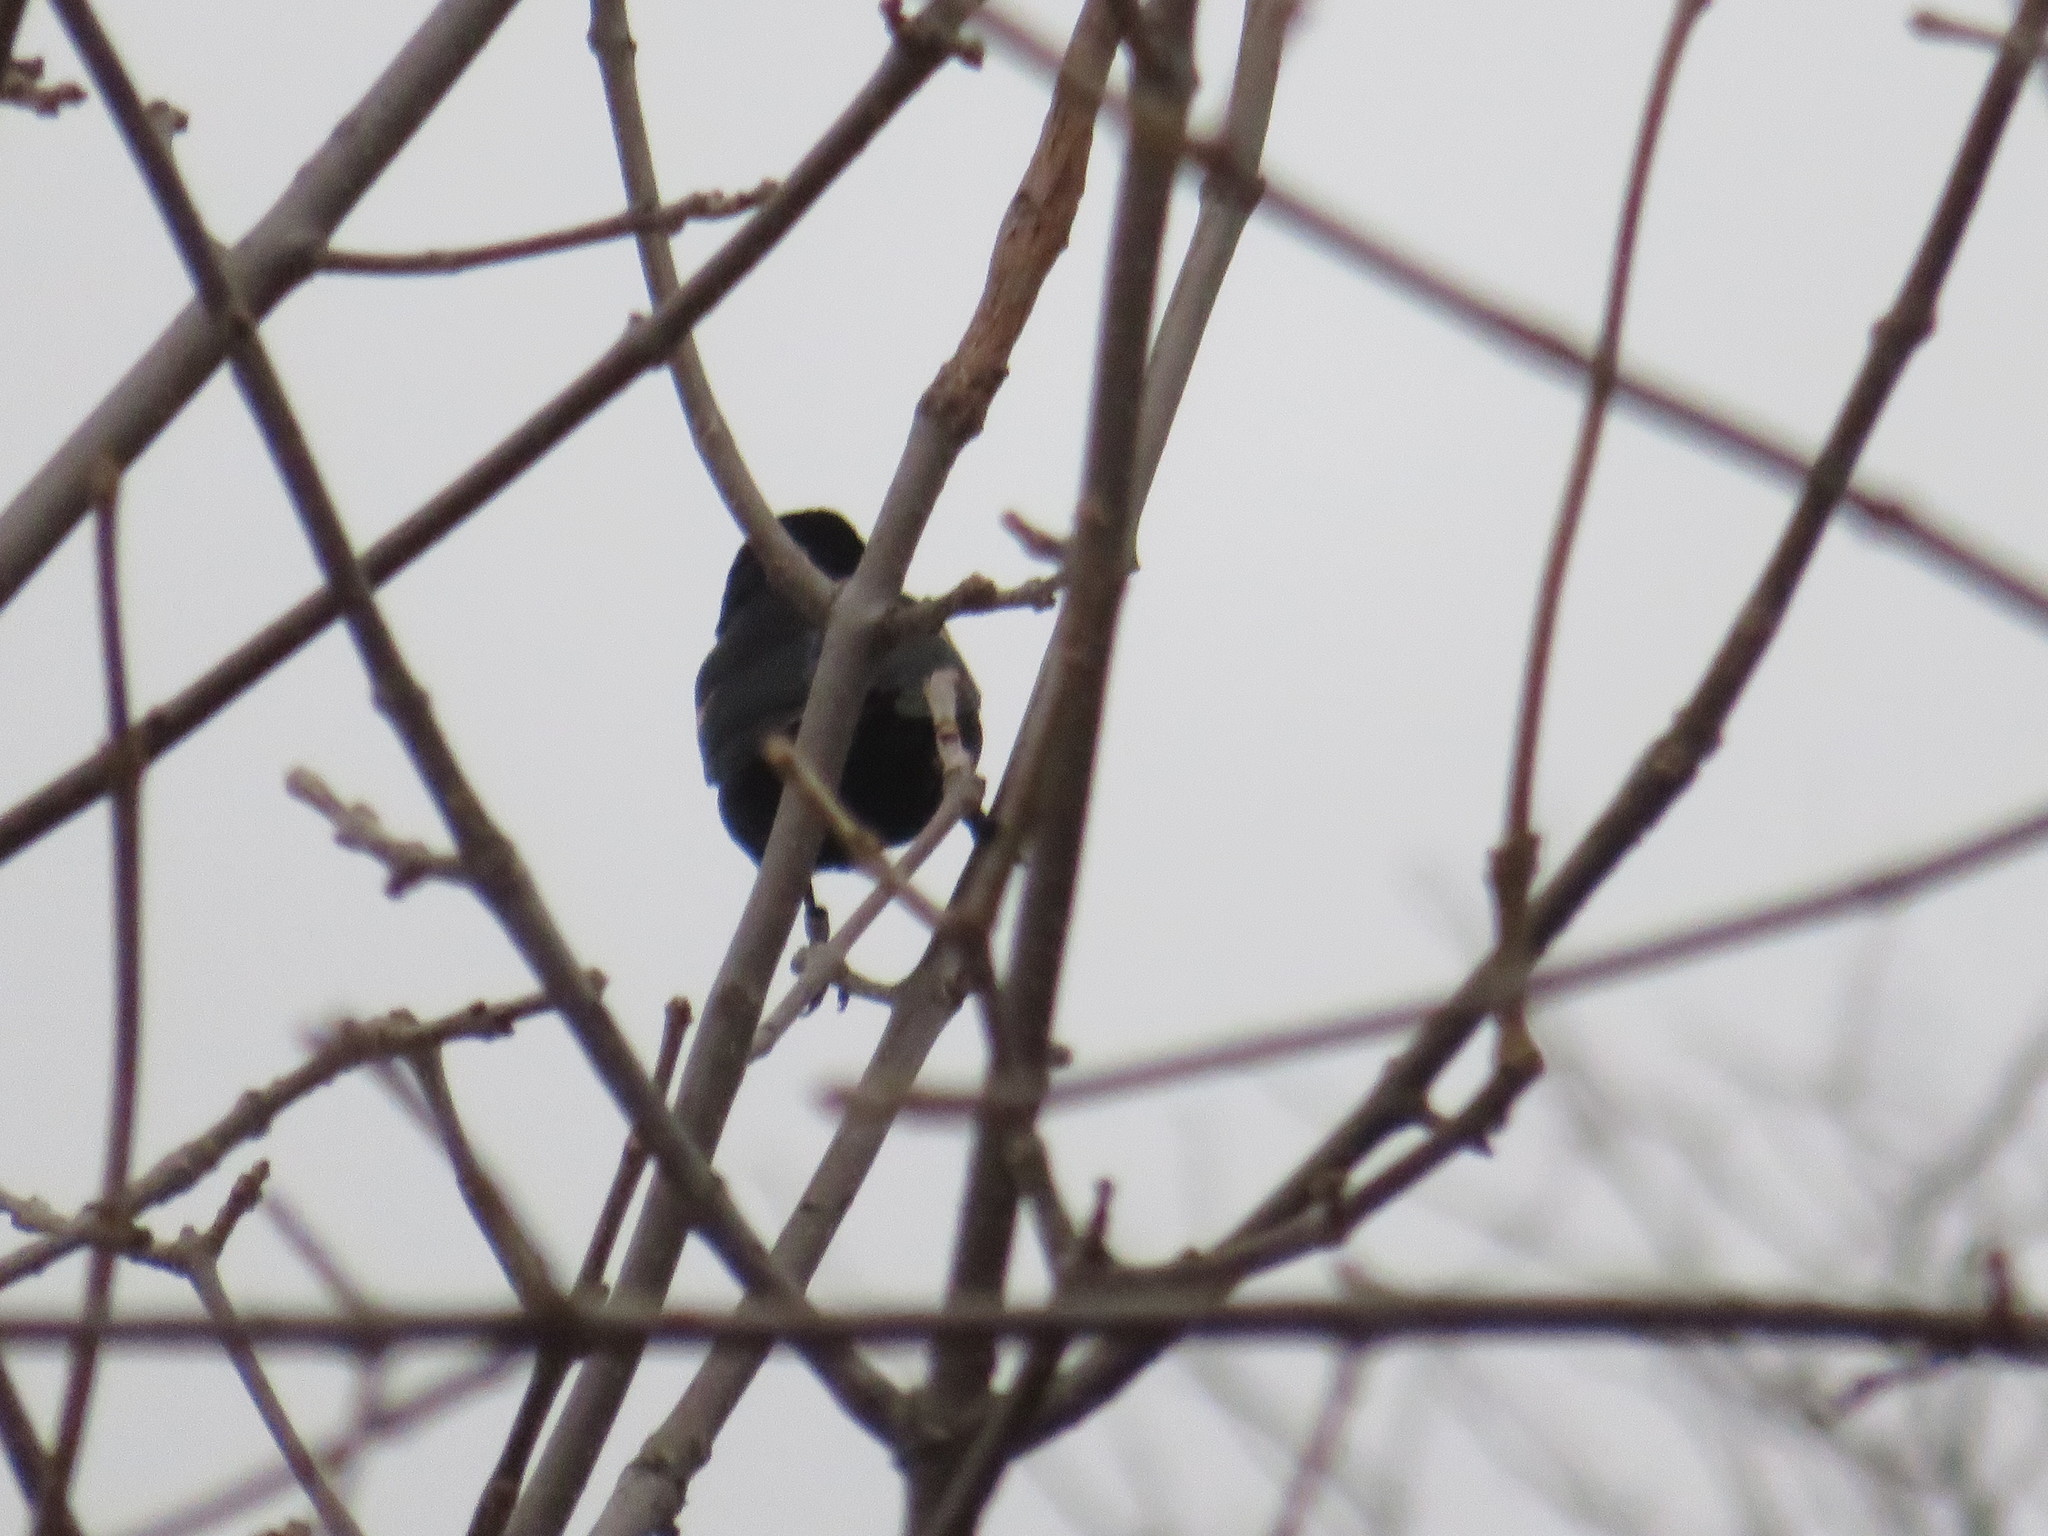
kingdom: Animalia
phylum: Chordata
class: Aves
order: Passeriformes
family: Icteridae
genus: Agelaius
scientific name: Agelaius phoeniceus
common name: Red-winged blackbird
